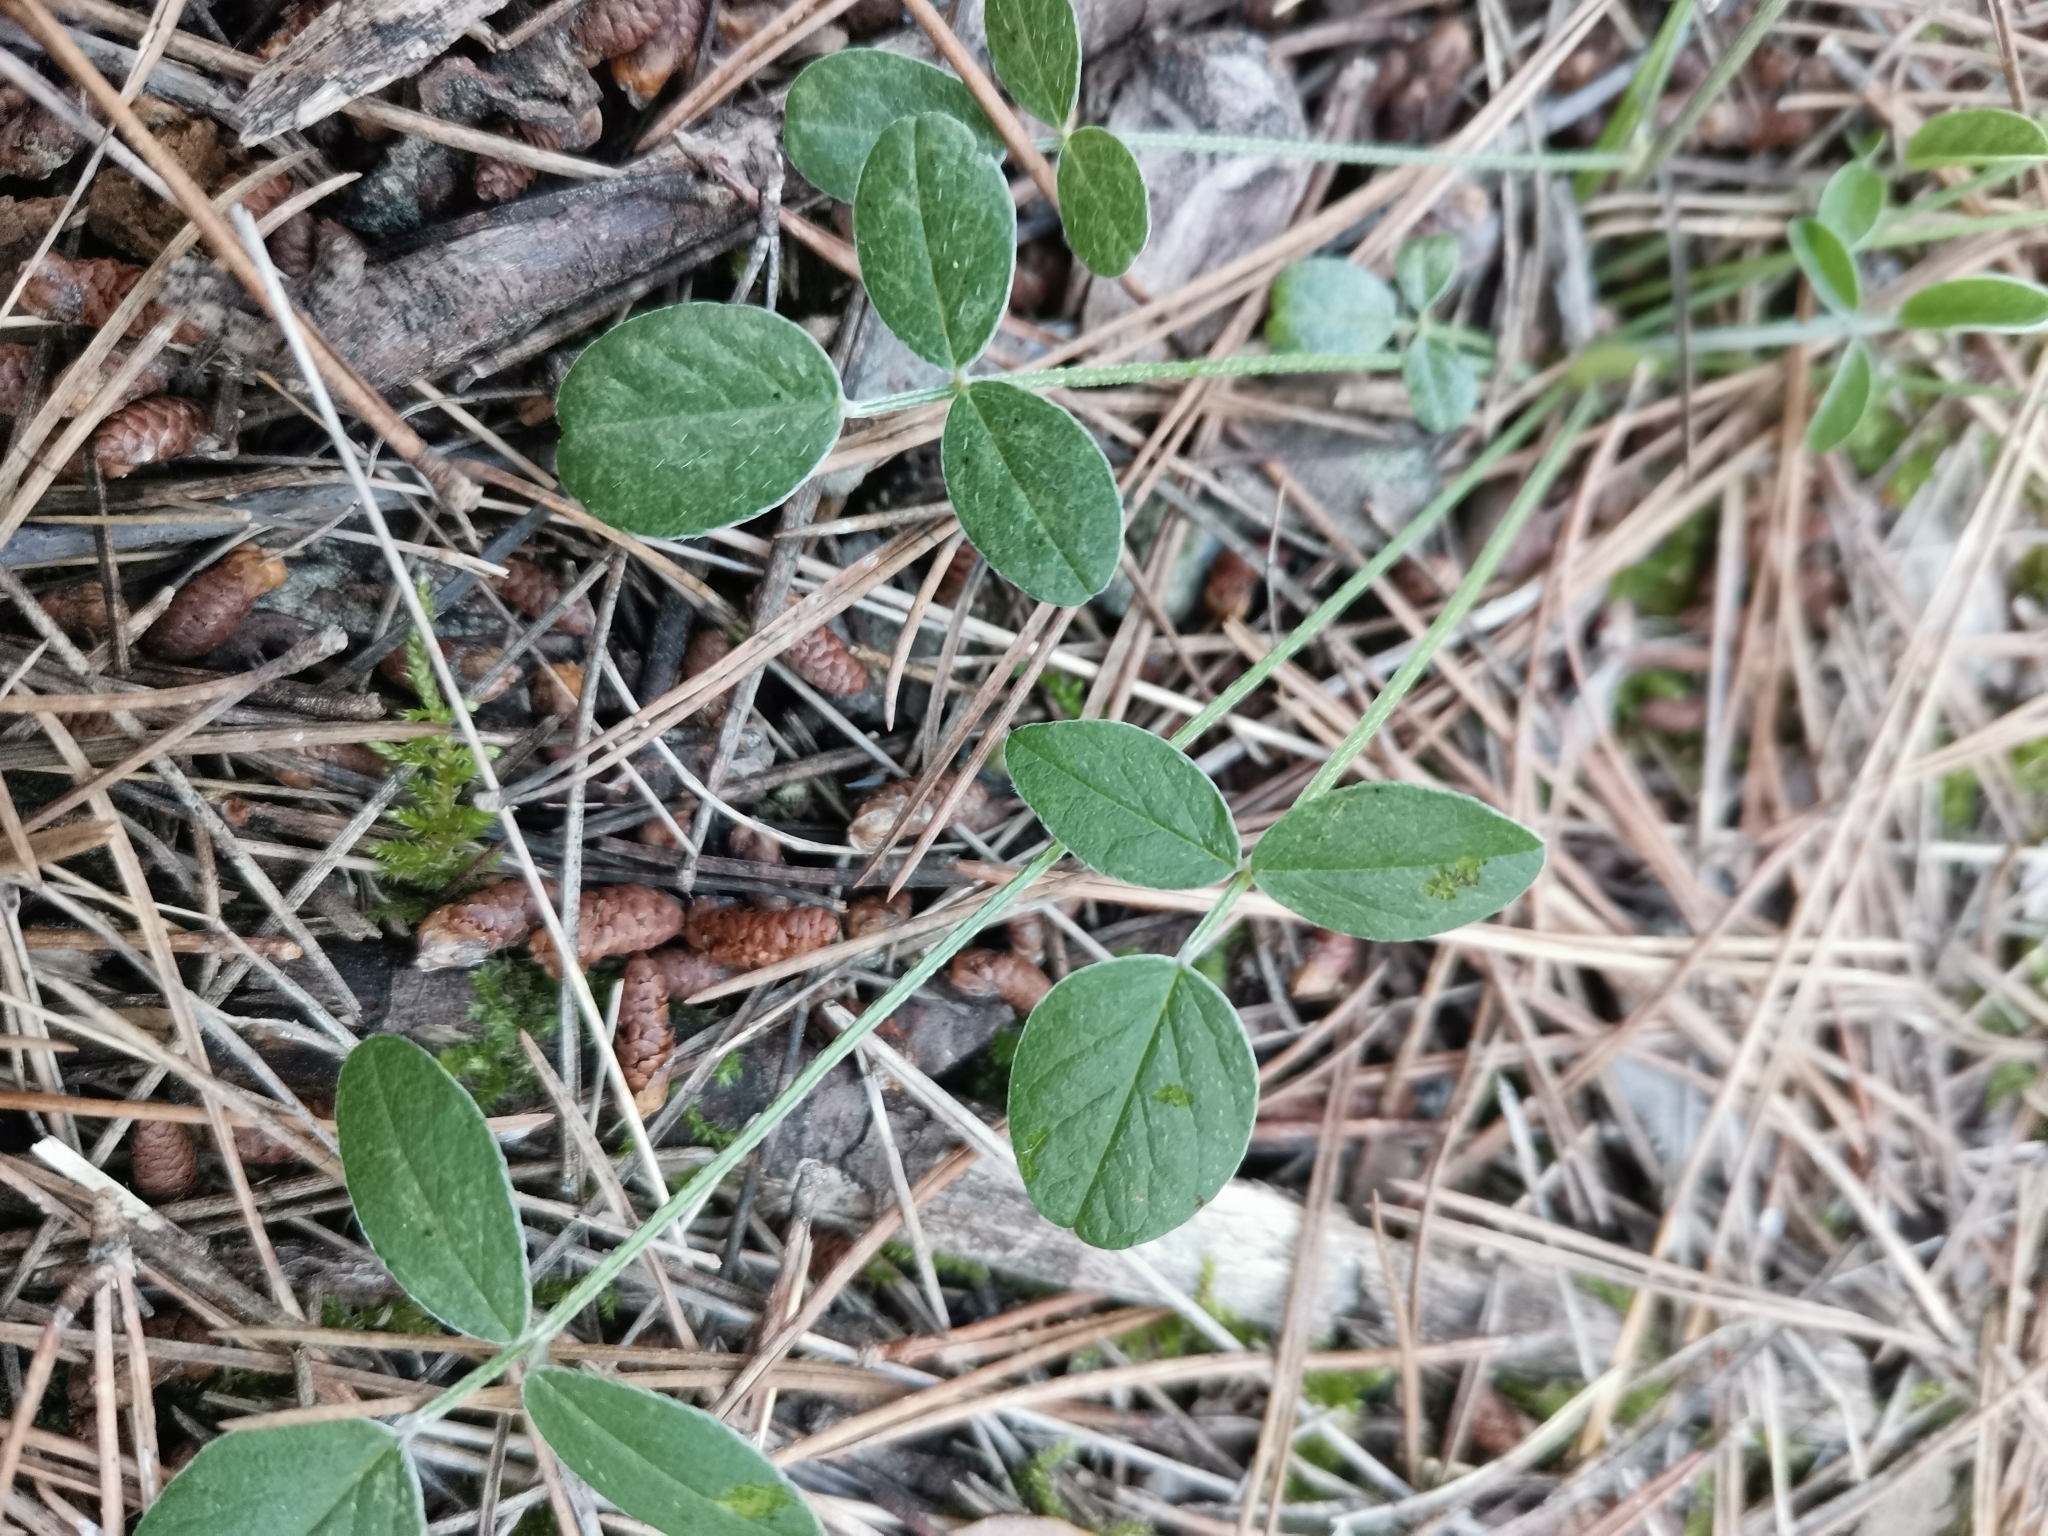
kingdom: Plantae
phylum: Tracheophyta
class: Magnoliopsida
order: Fabales
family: Fabaceae
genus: Bituminaria
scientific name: Bituminaria bituminosa
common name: Arabian pea
